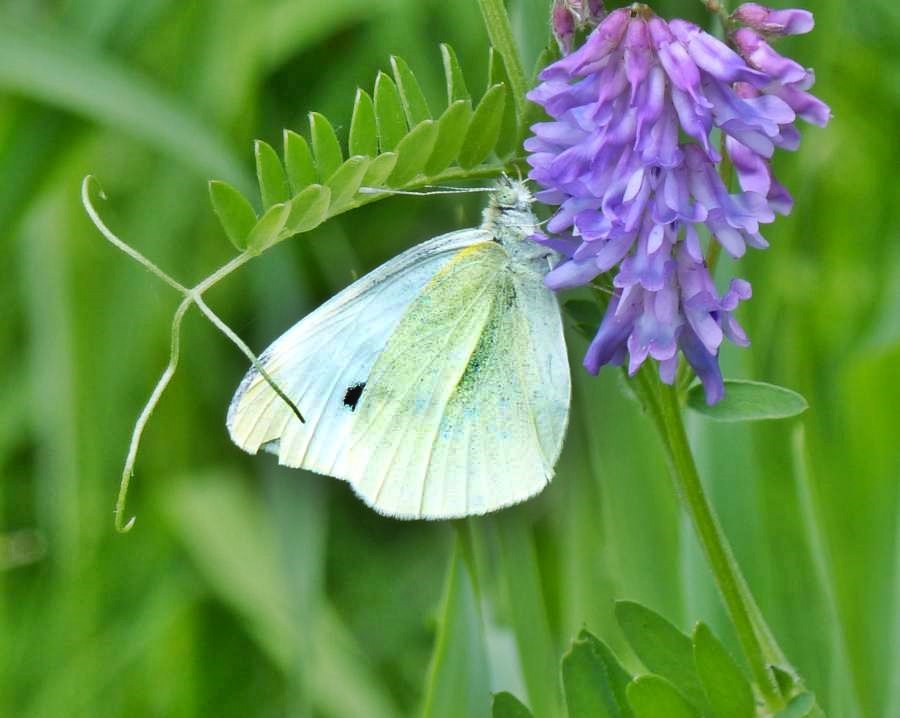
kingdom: Animalia
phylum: Arthropoda
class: Insecta
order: Lepidoptera
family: Pieridae
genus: Pieris
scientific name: Pieris rapae
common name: Small white
